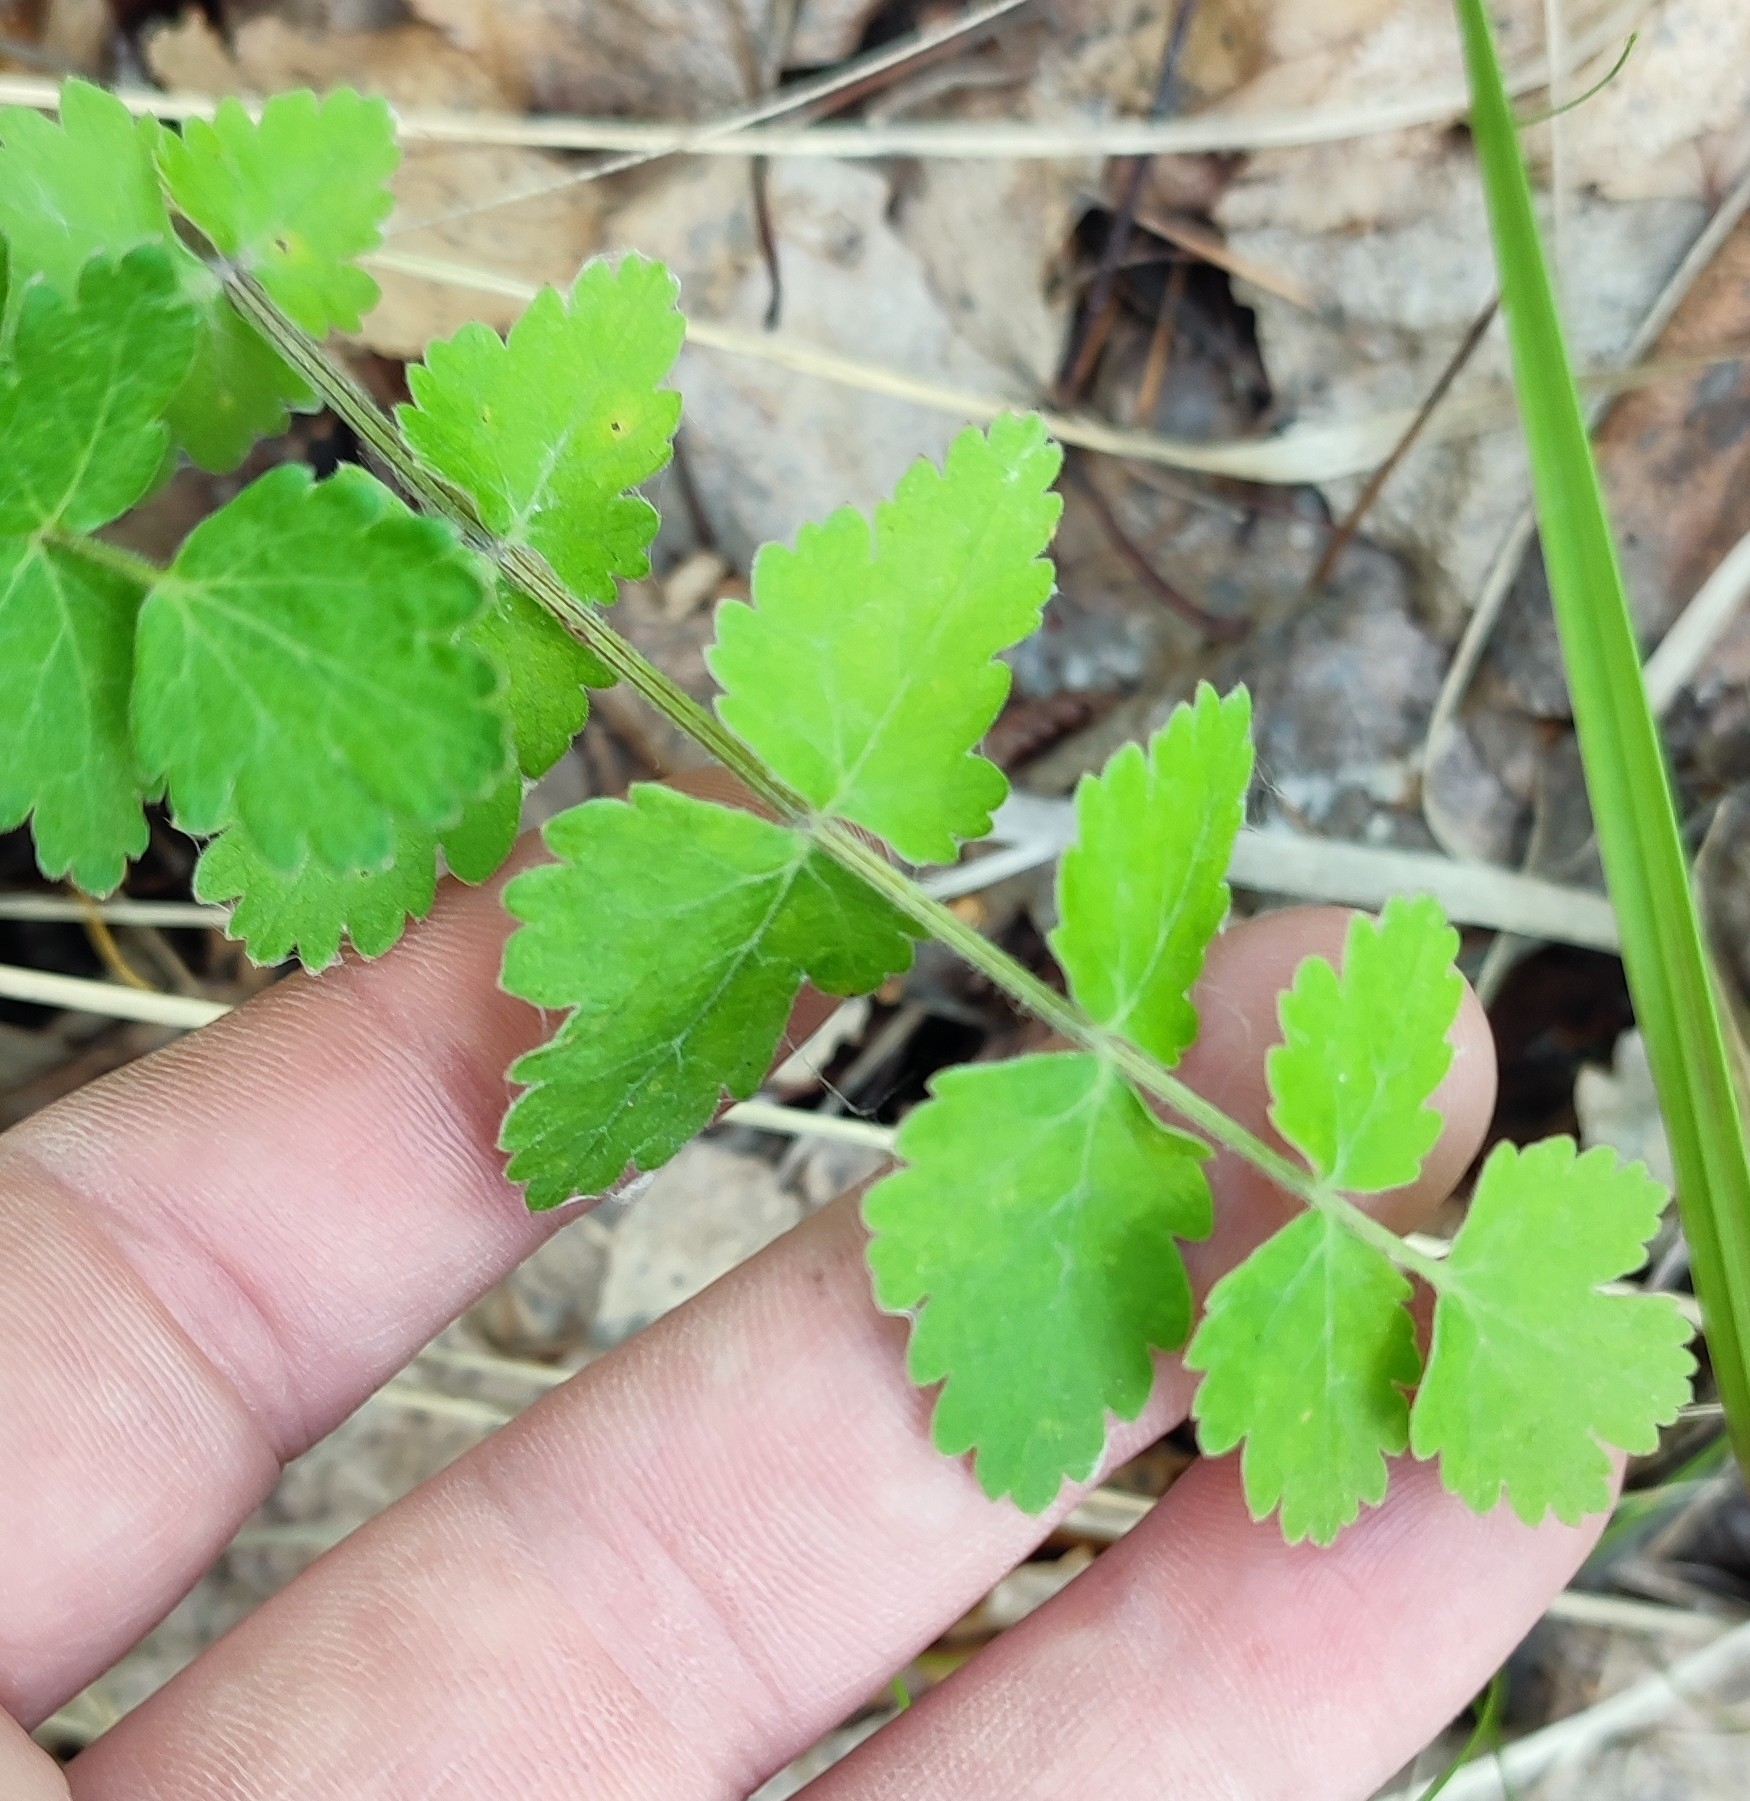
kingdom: Plantae
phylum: Tracheophyta
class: Magnoliopsida
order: Apiales
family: Apiaceae
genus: Pimpinella
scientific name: Pimpinella saxifraga
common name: Burnet-saxifrage
